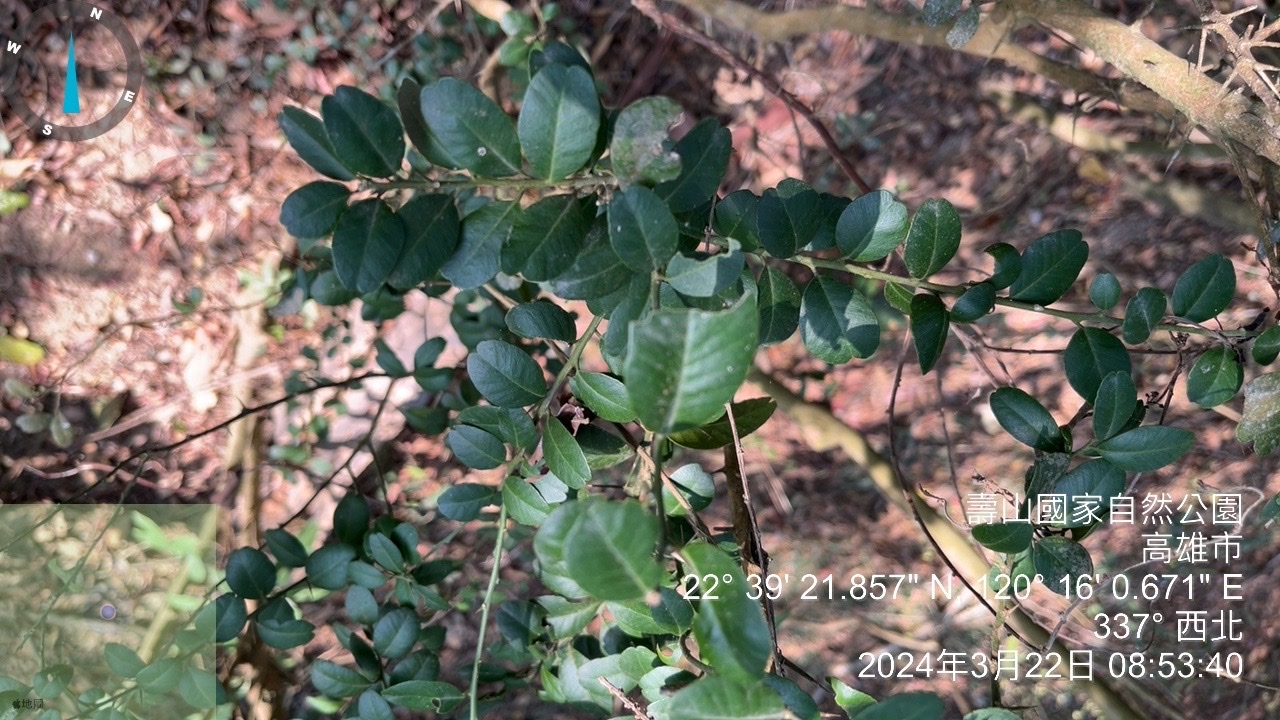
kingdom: Plantae
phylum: Tracheophyta
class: Magnoliopsida
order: Sapindales
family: Rutaceae
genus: Atalantia
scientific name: Atalantia buxifolia
